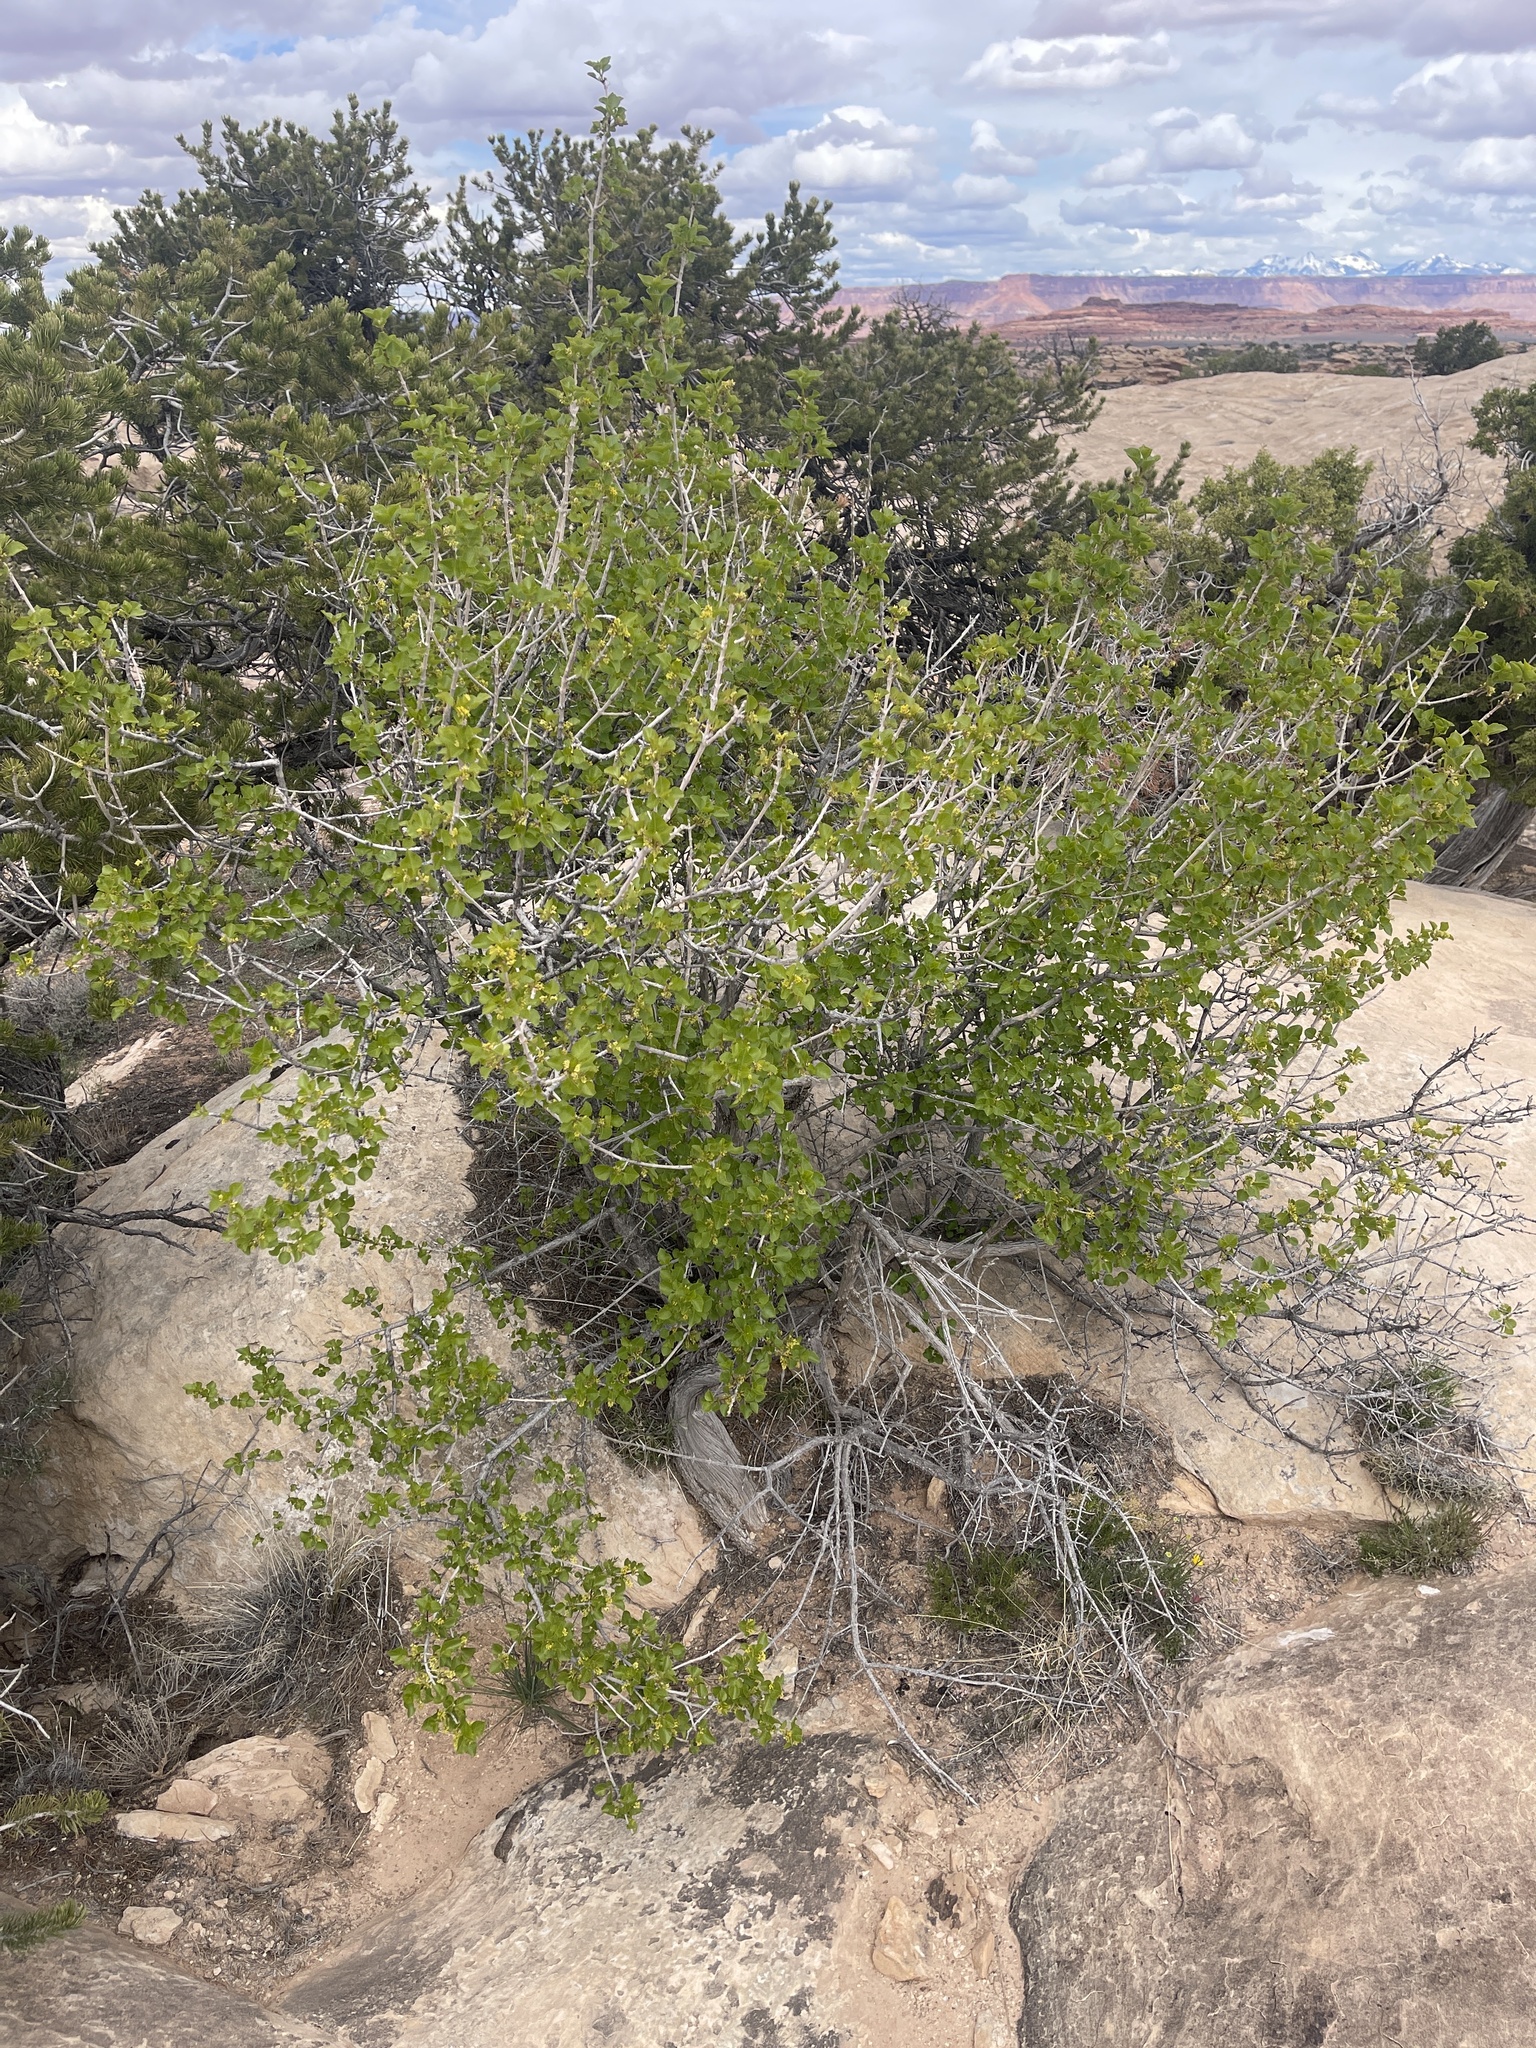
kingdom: Plantae
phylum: Tracheophyta
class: Magnoliopsida
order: Lamiales
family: Oleaceae
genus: Fraxinus
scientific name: Fraxinus anomala
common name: Utah ash
